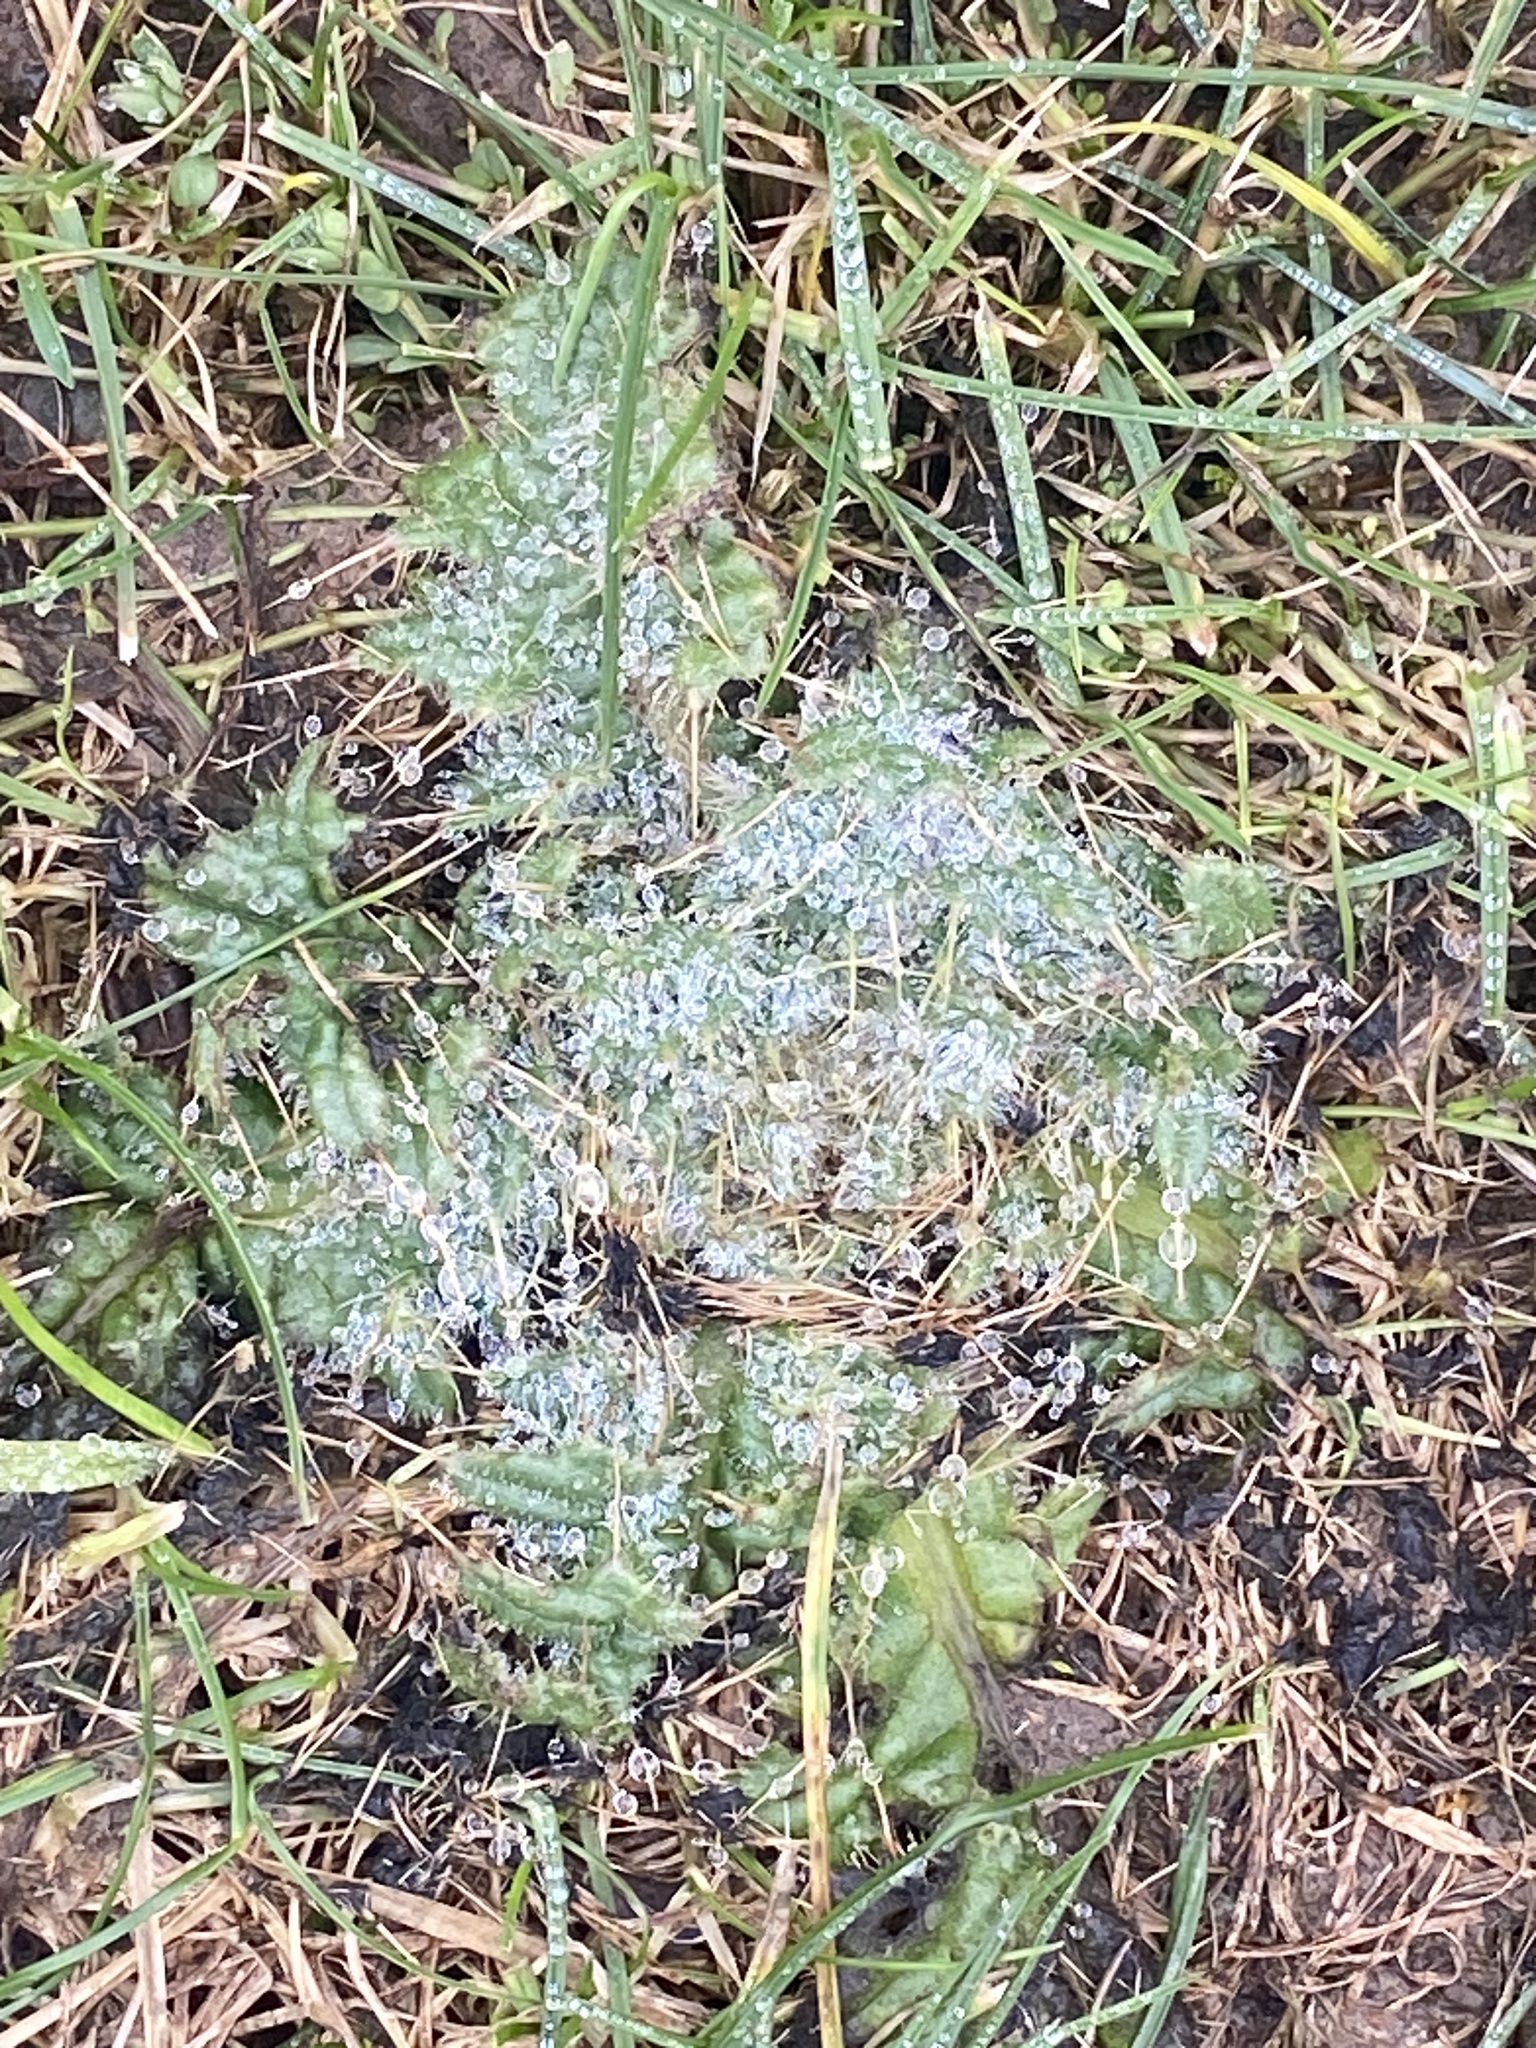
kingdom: Plantae
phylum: Tracheophyta
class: Magnoliopsida
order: Asterales
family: Asteraceae
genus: Cirsium
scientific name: Cirsium vulgare
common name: Bull thistle
